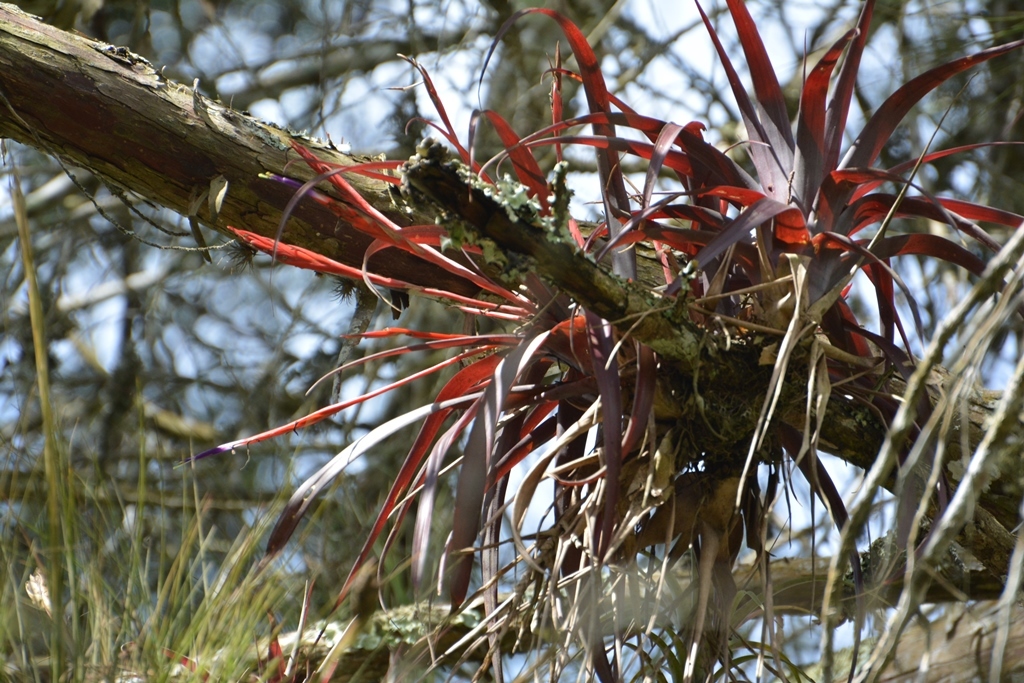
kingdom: Plantae
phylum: Tracheophyta
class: Liliopsida
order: Poales
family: Bromeliaceae
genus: Tillandsia
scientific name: Tillandsia flabellata
